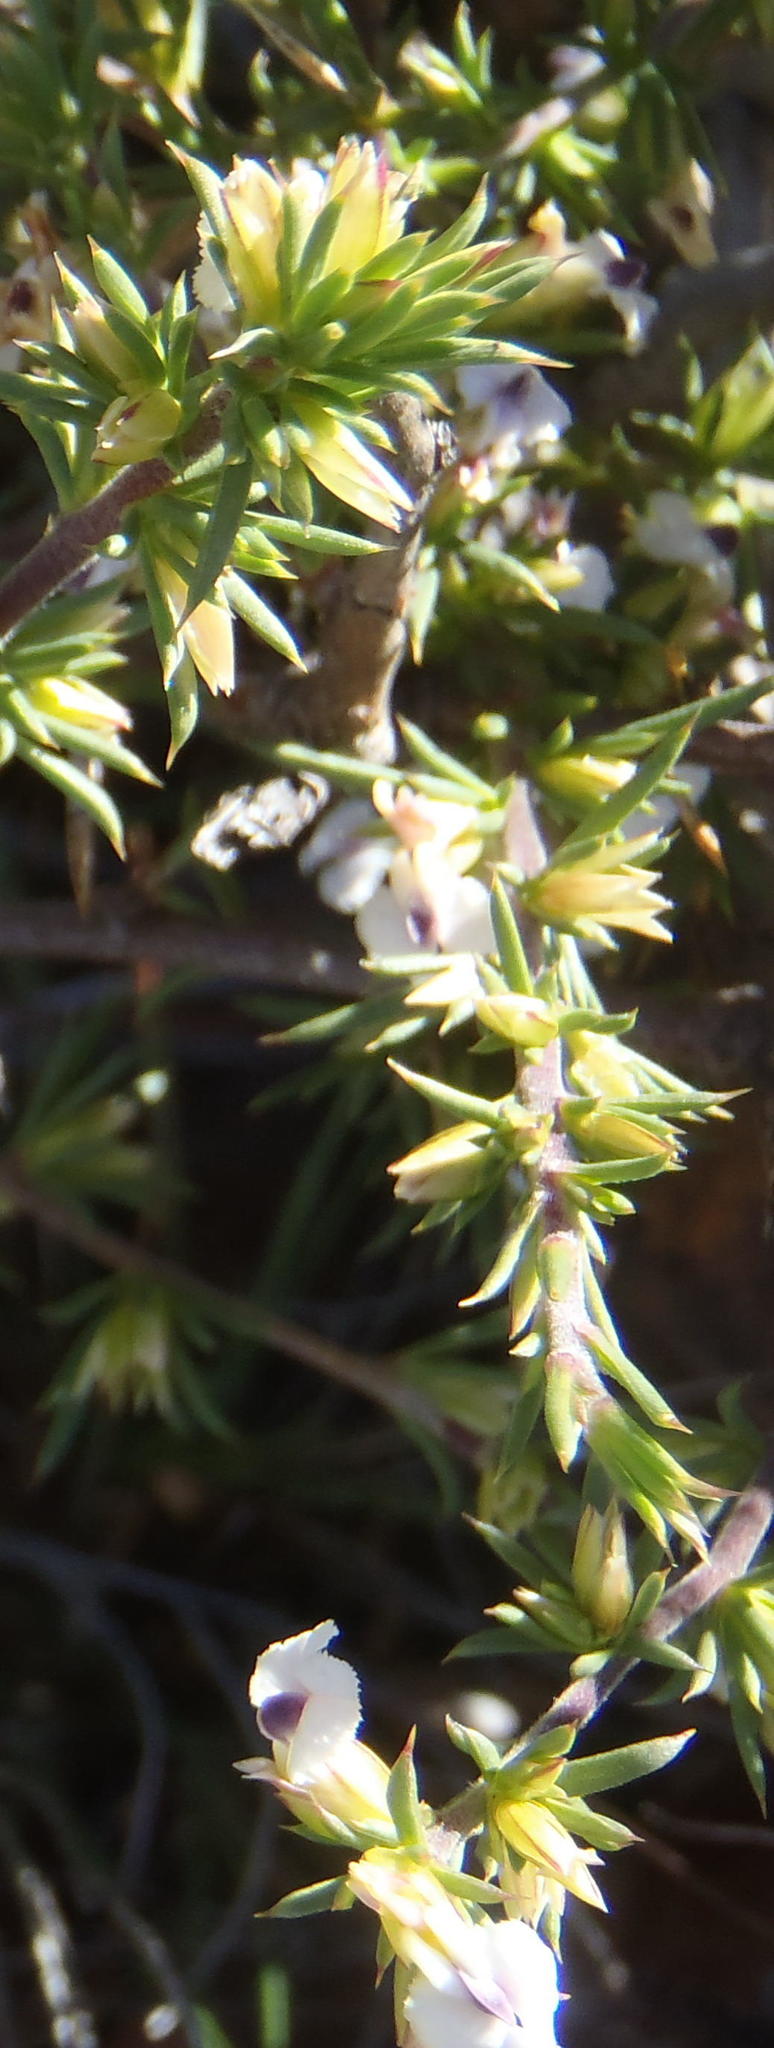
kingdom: Plantae
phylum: Tracheophyta
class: Magnoliopsida
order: Fabales
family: Polygalaceae
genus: Muraltia
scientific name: Muraltia ericifolia
